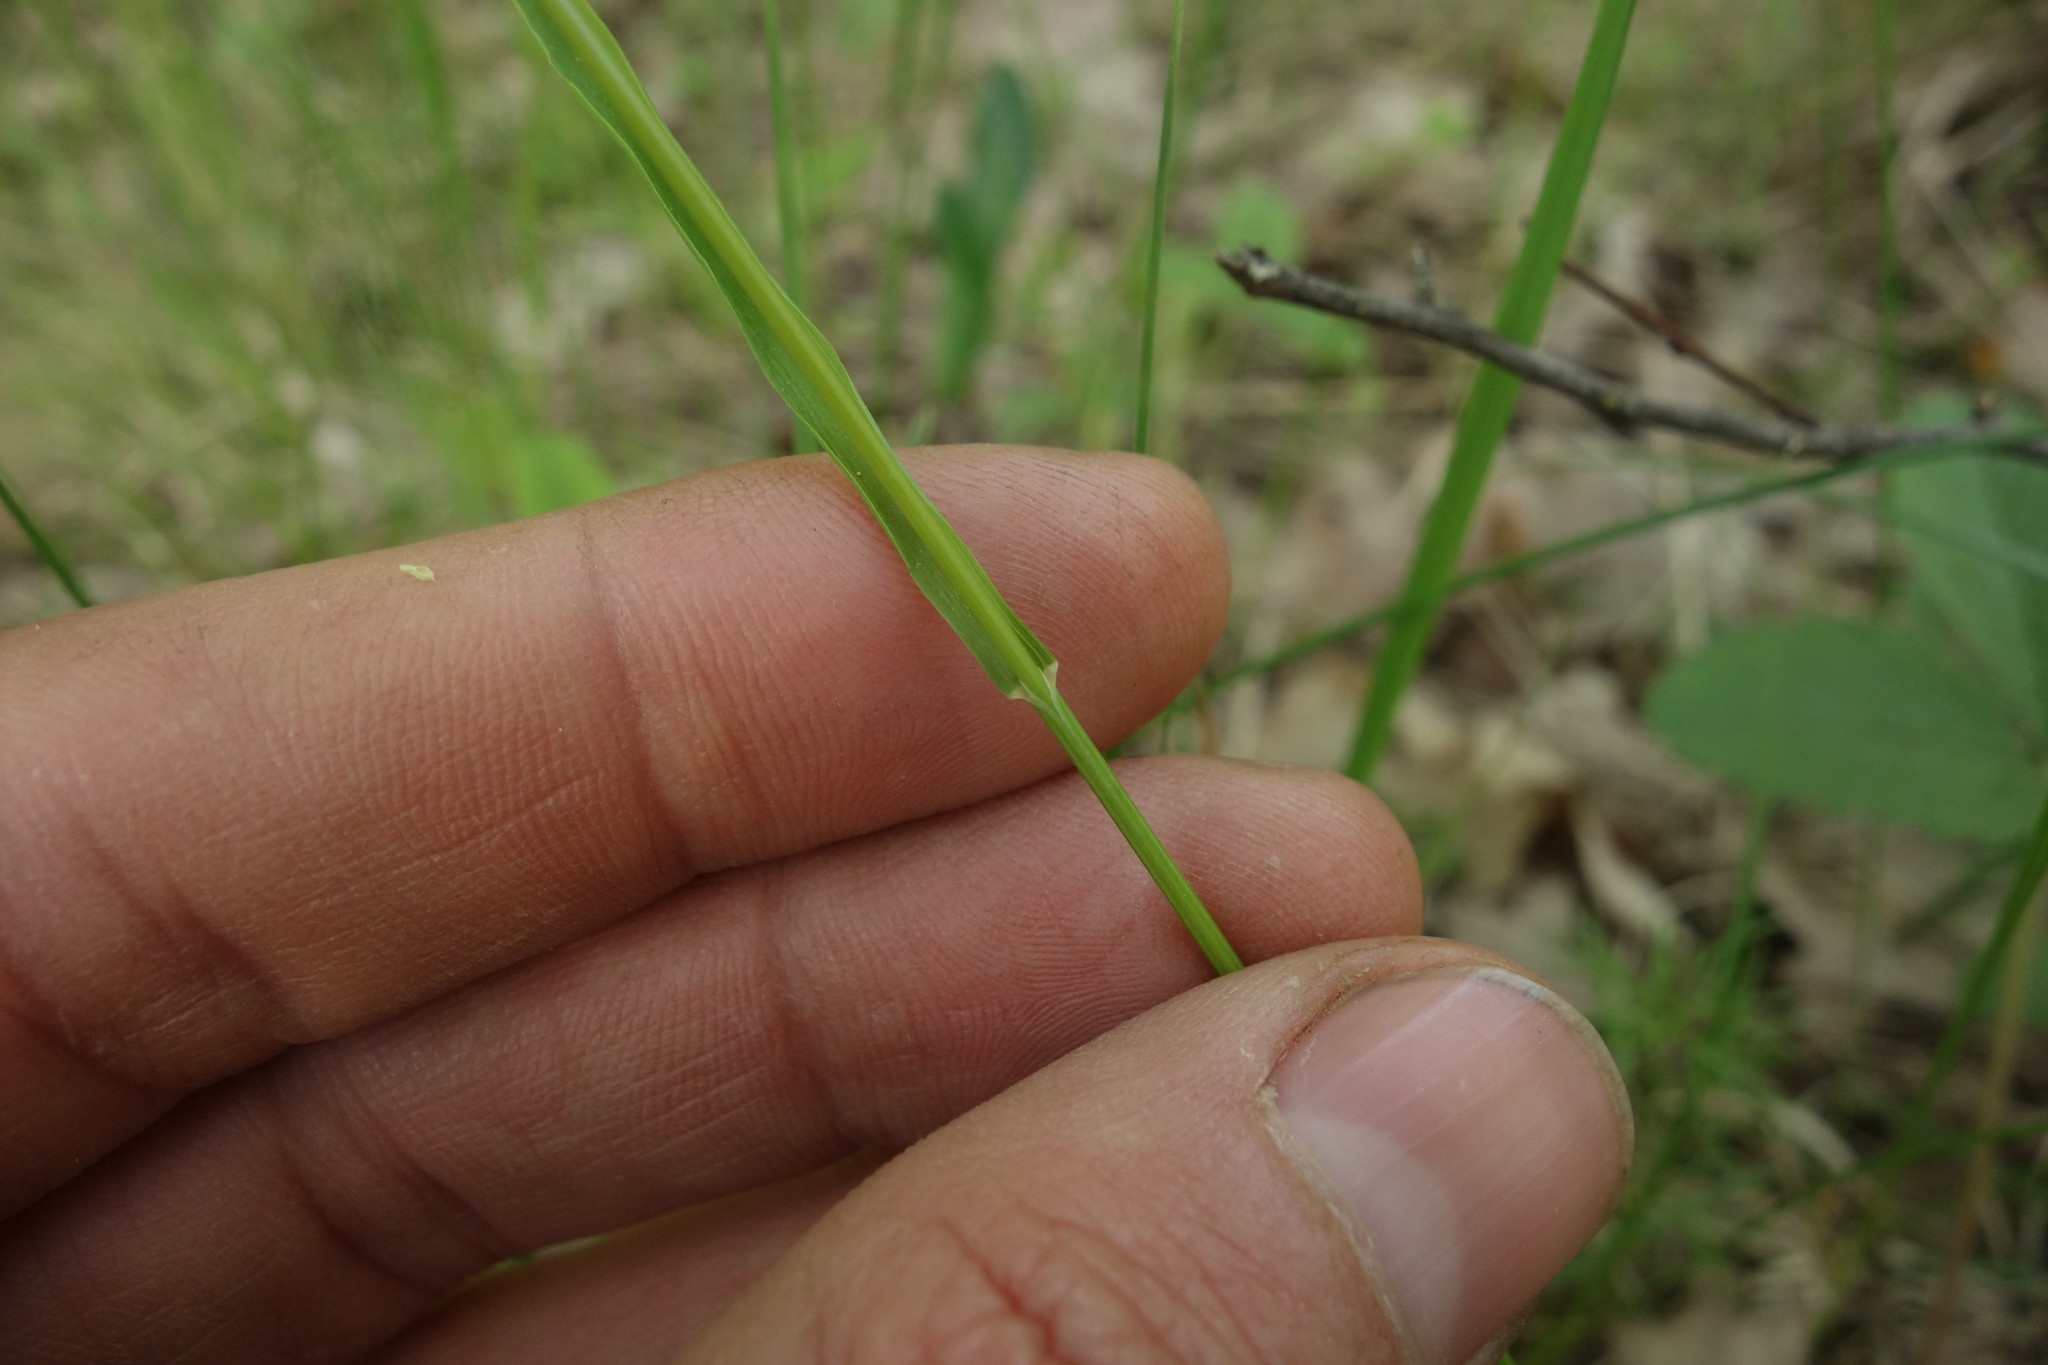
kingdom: Plantae
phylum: Tracheophyta
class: Liliopsida
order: Poales
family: Poaceae
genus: Melica
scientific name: Melica picta
